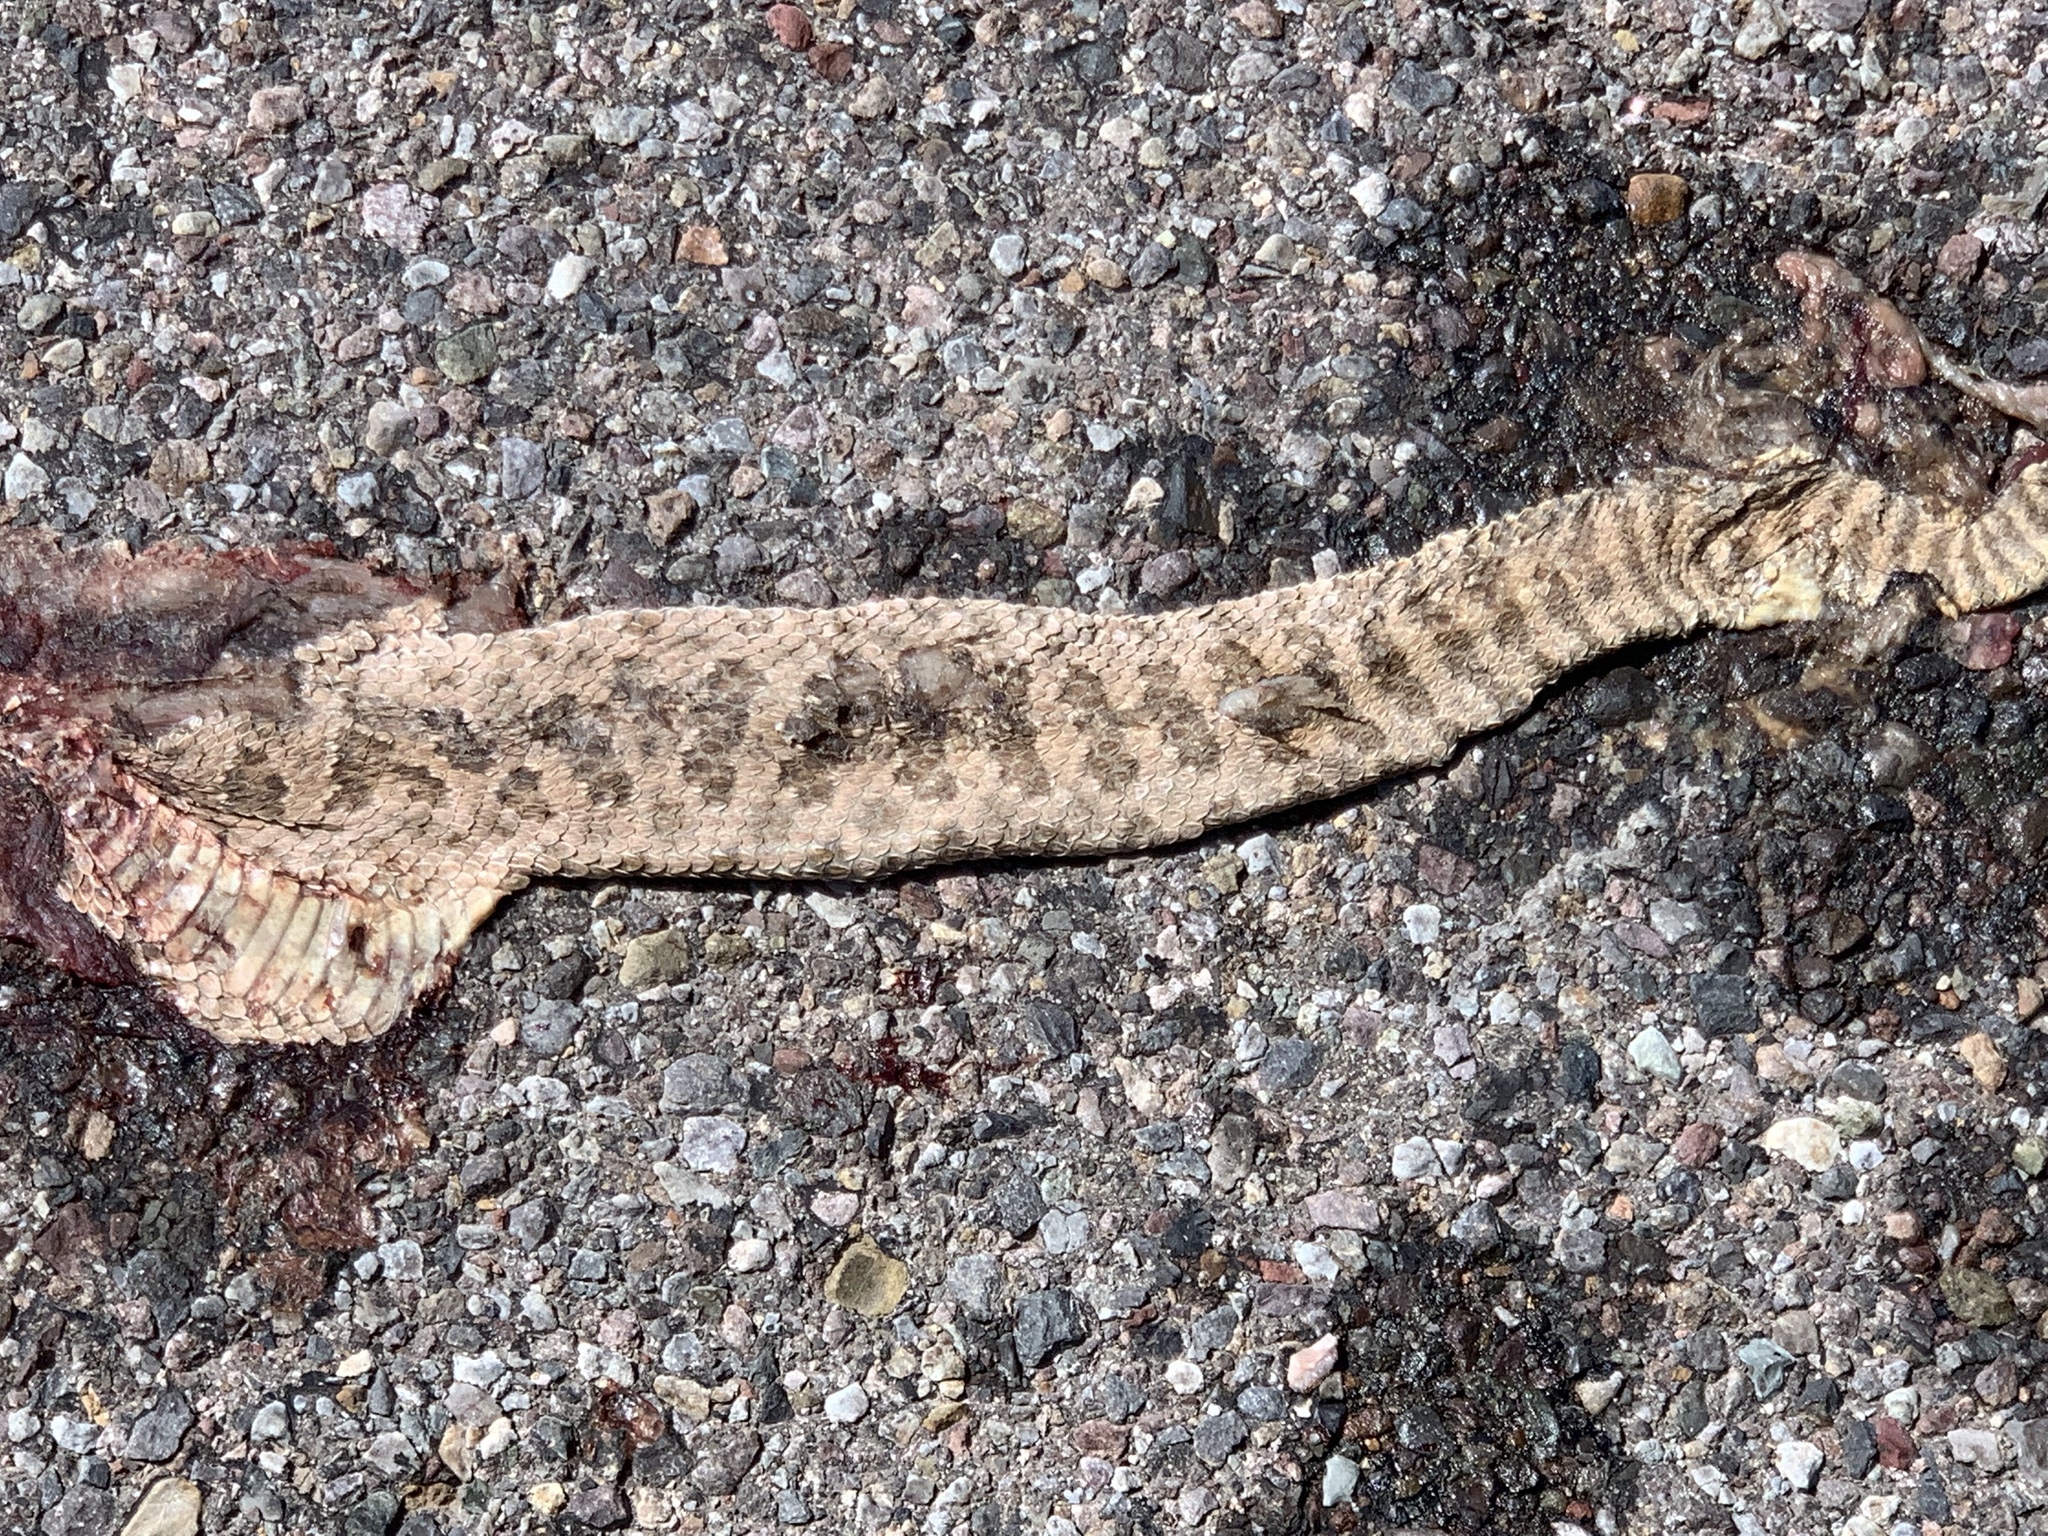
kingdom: Animalia
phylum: Chordata
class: Squamata
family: Viperidae
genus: Crotalus
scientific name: Crotalus viridis
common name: Prairie rattlesnake
